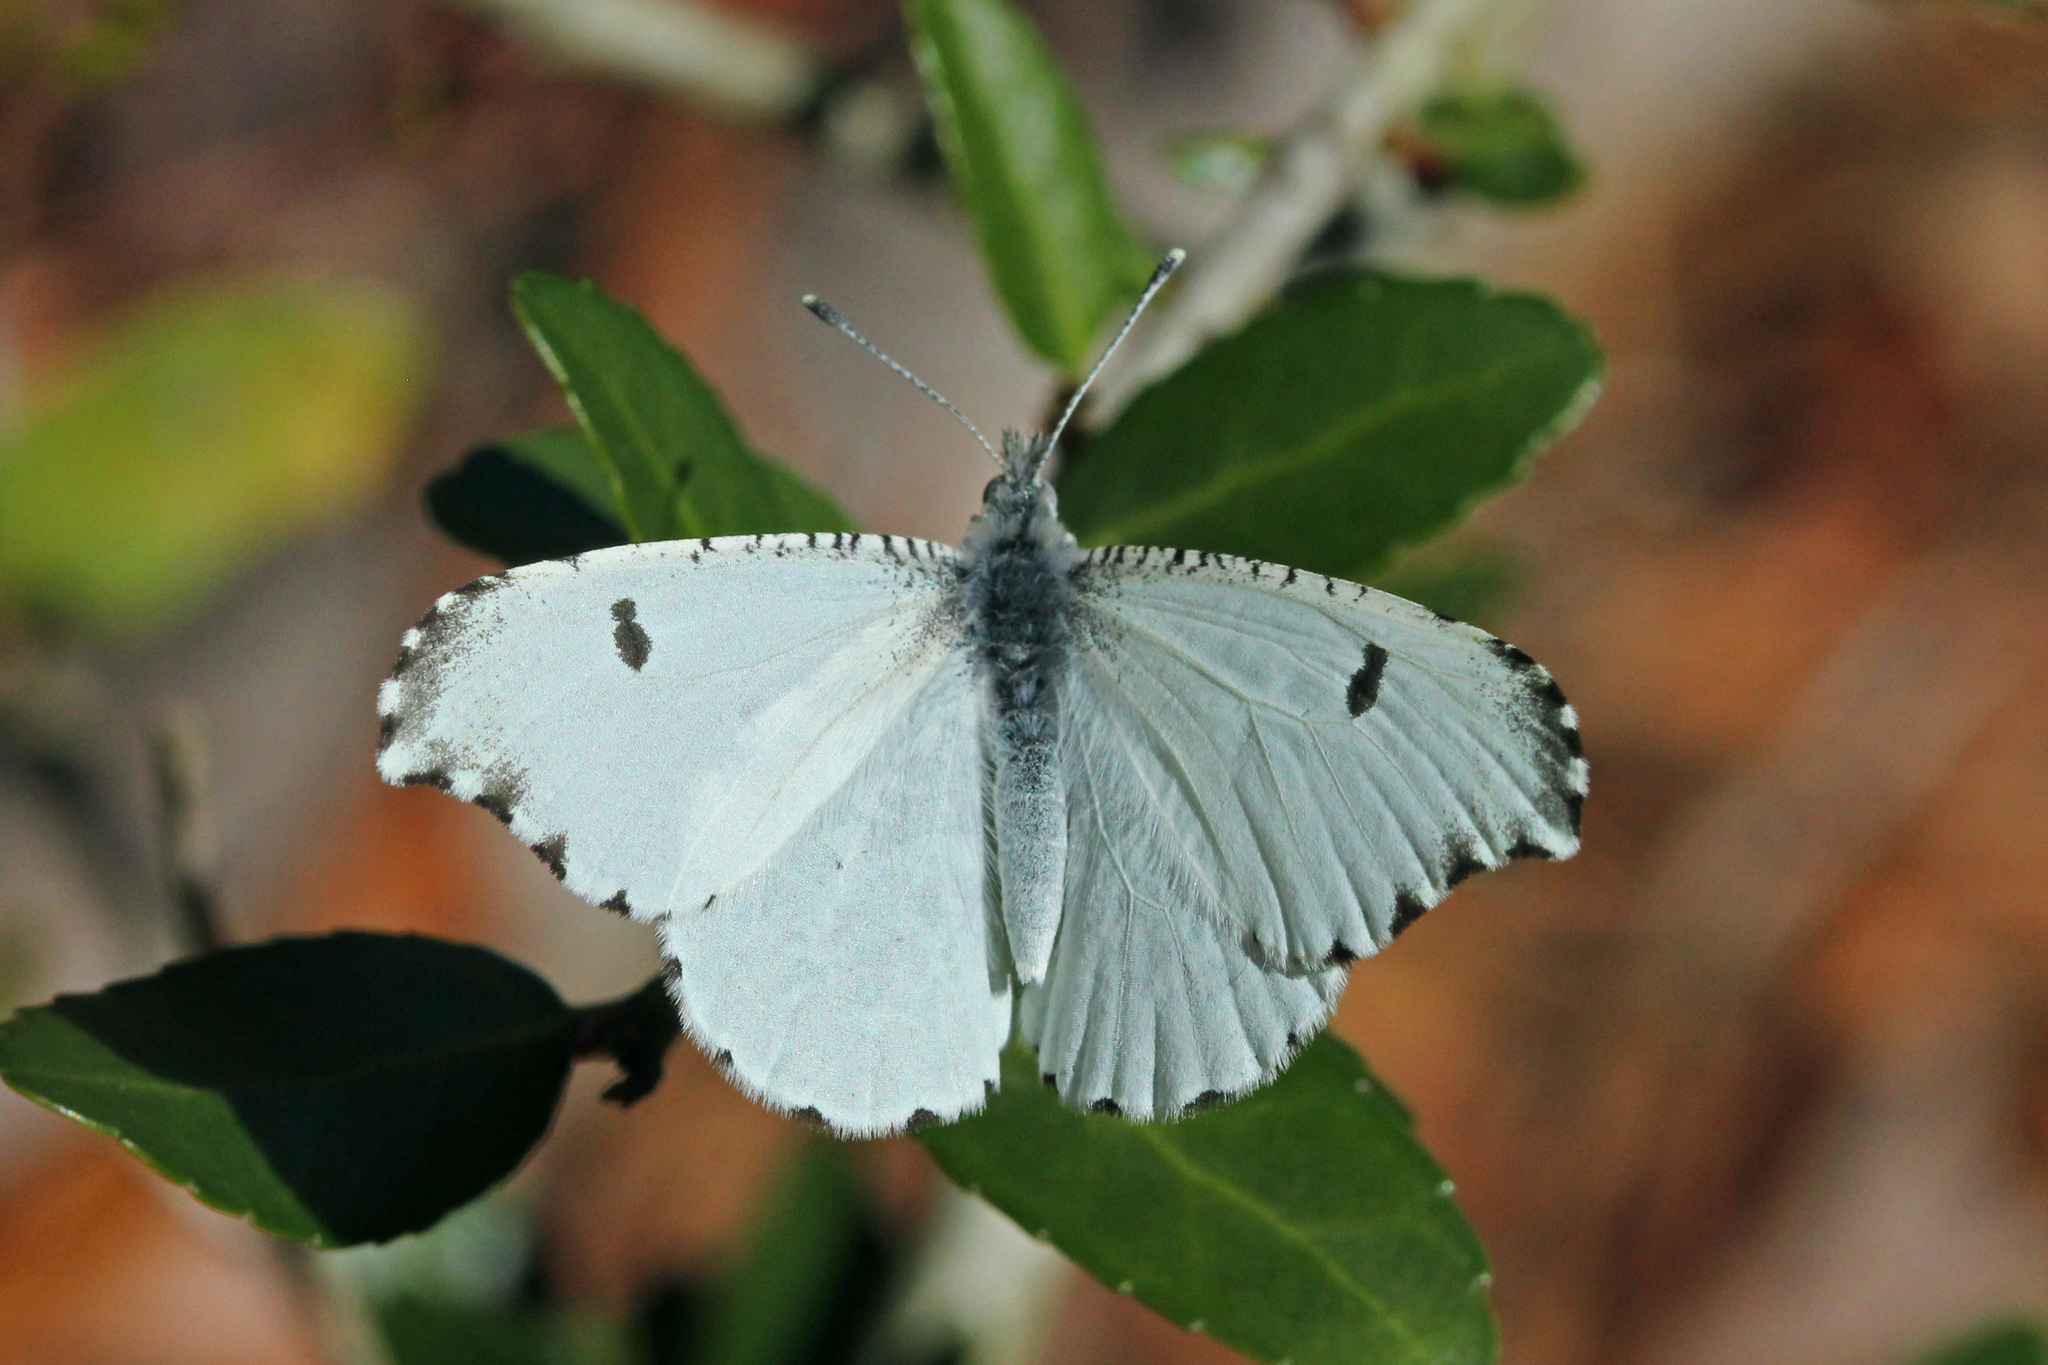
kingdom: Animalia
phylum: Arthropoda
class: Insecta
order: Lepidoptera
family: Pieridae
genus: Anthocharis
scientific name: Anthocharis midea
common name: Falcate orangetip
